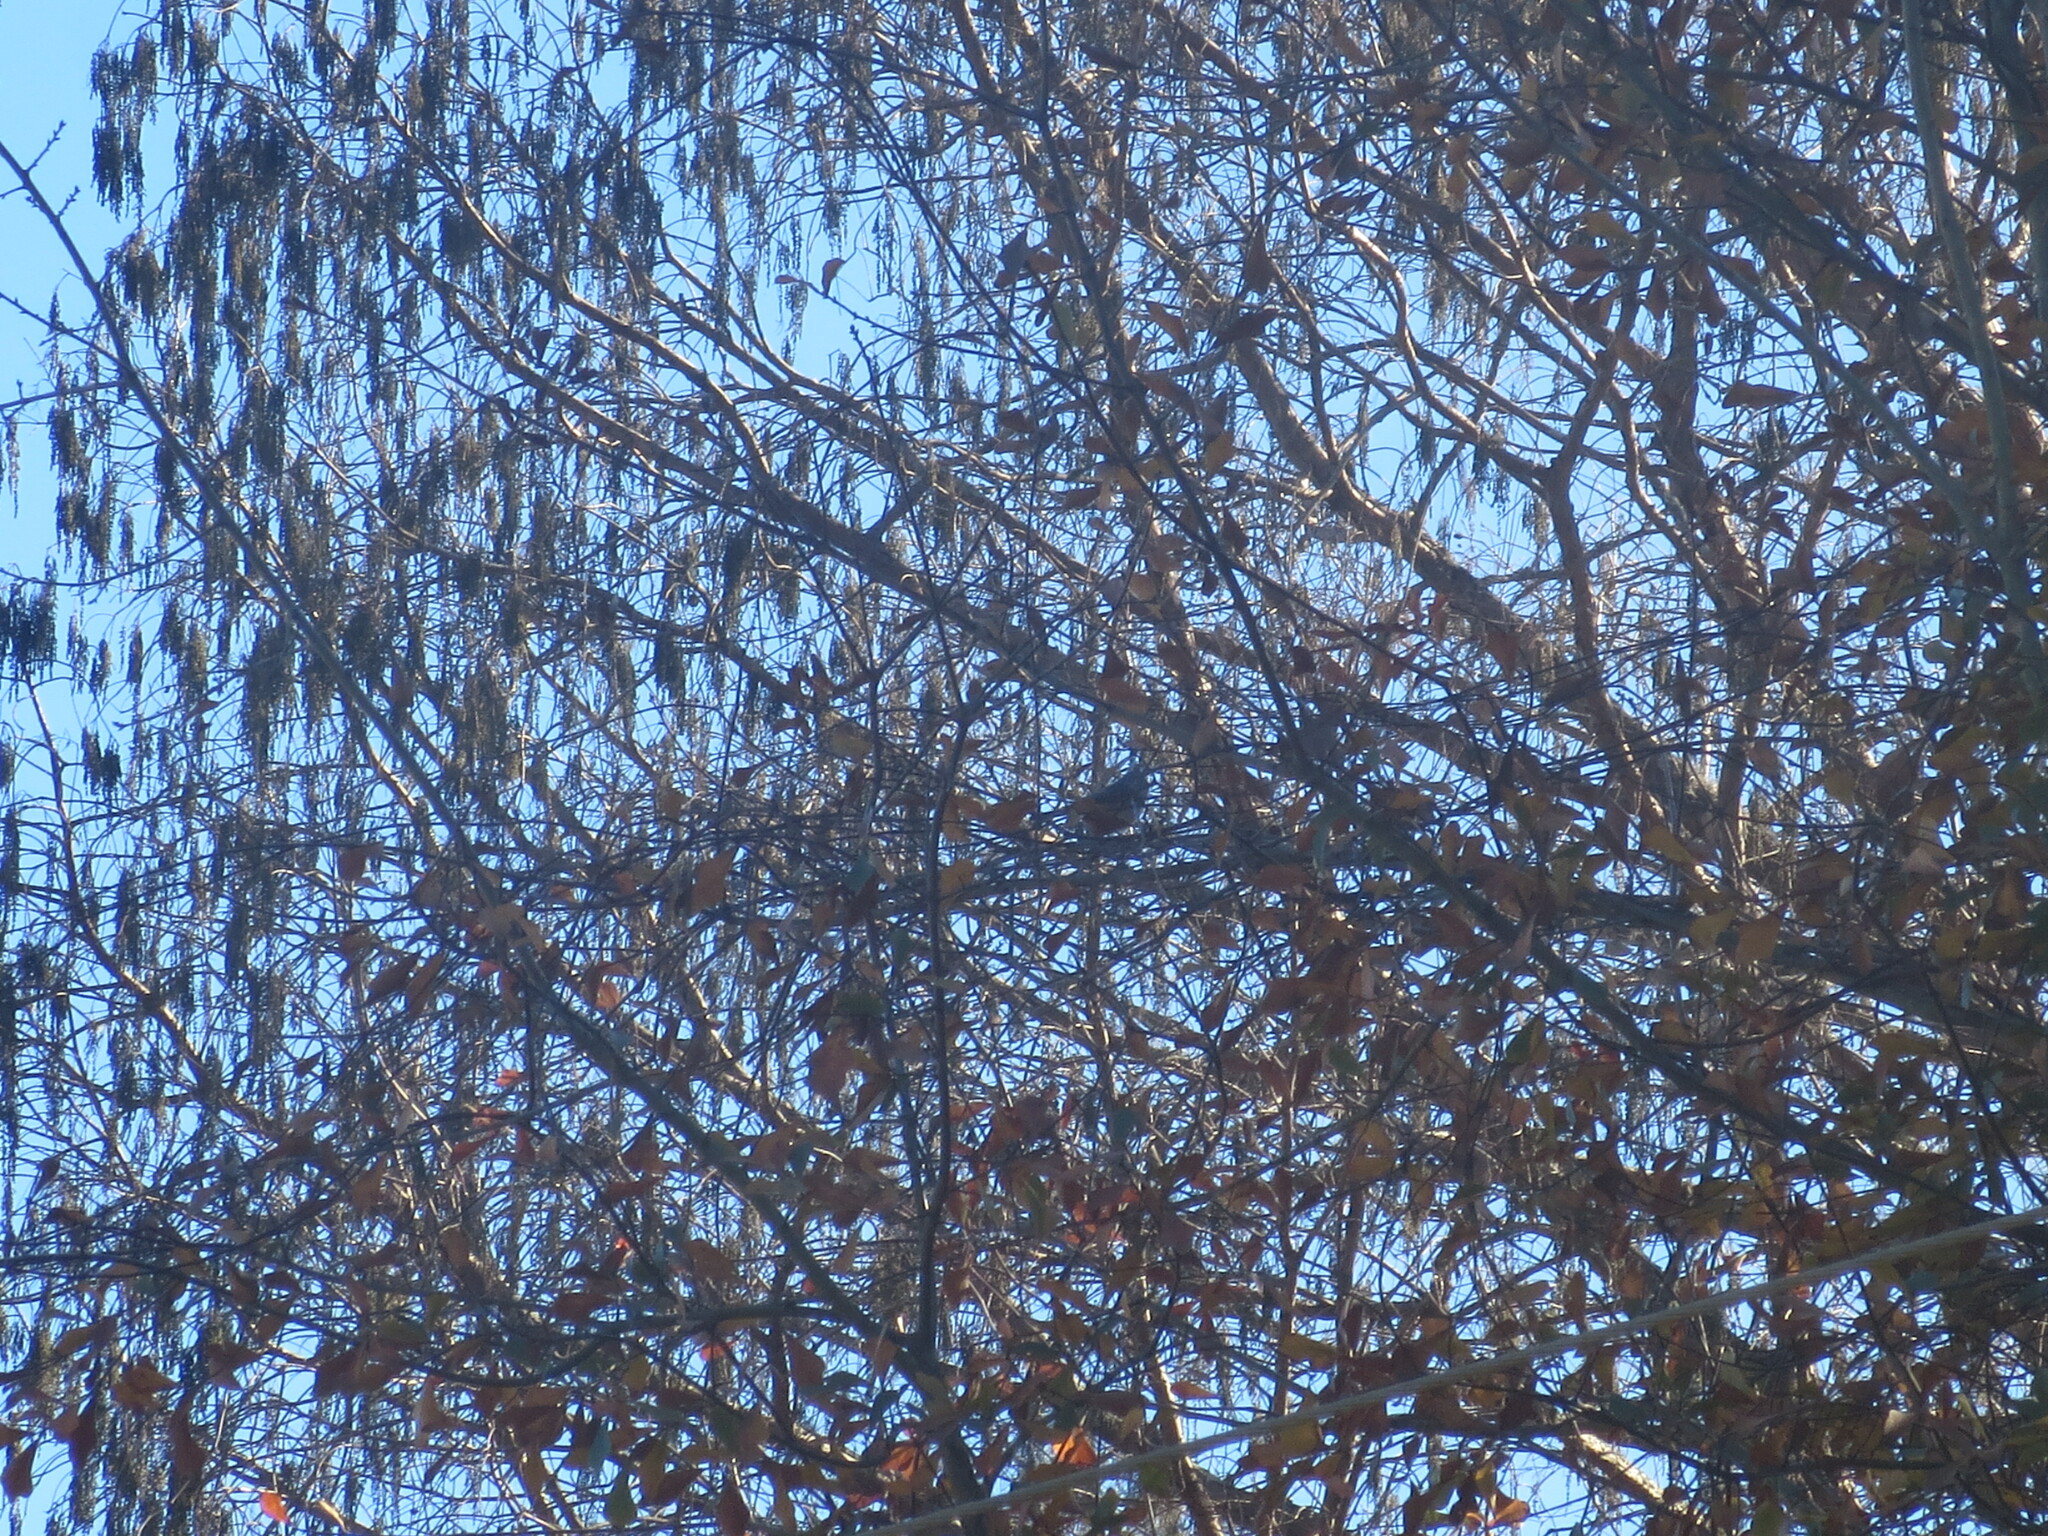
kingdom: Animalia
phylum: Chordata
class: Aves
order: Passeriformes
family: Paridae
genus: Baeolophus
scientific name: Baeolophus bicolor
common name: Tufted titmouse
